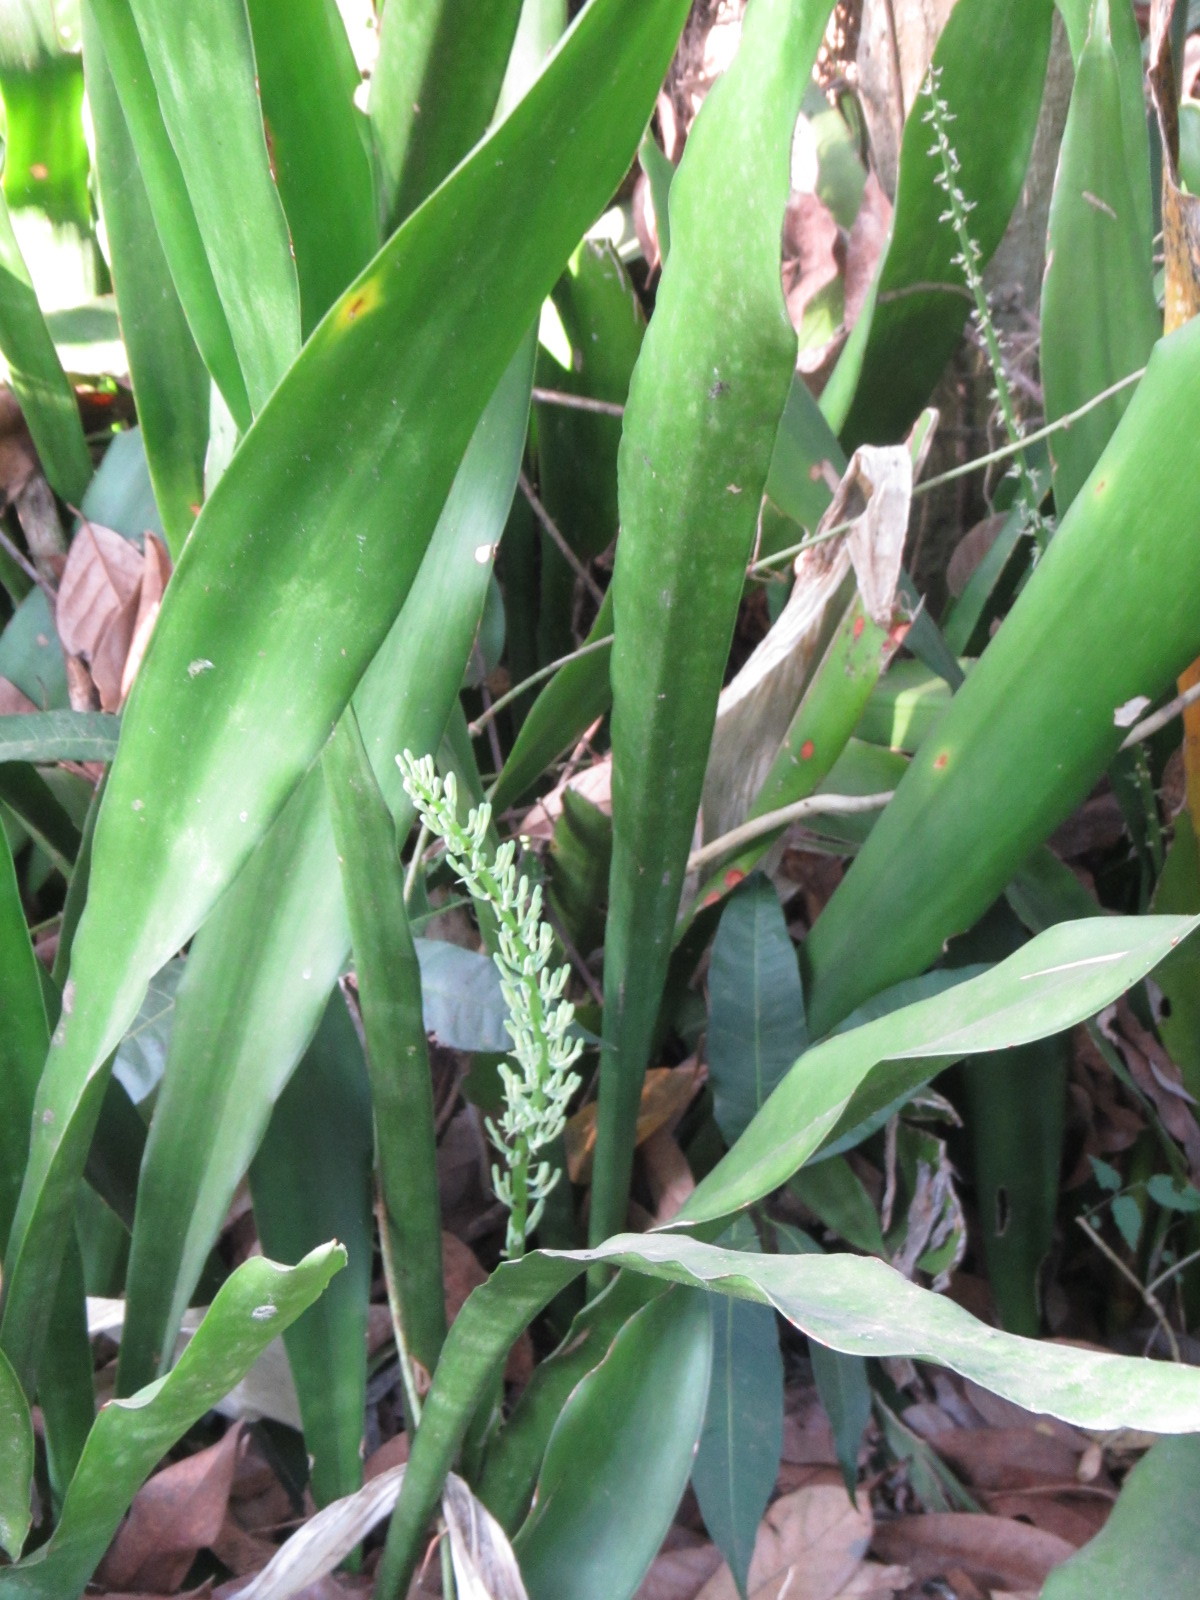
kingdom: Plantae
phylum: Tracheophyta
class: Liliopsida
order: Asparagales
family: Asparagaceae
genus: Dracaena
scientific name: Dracaena senegambica
